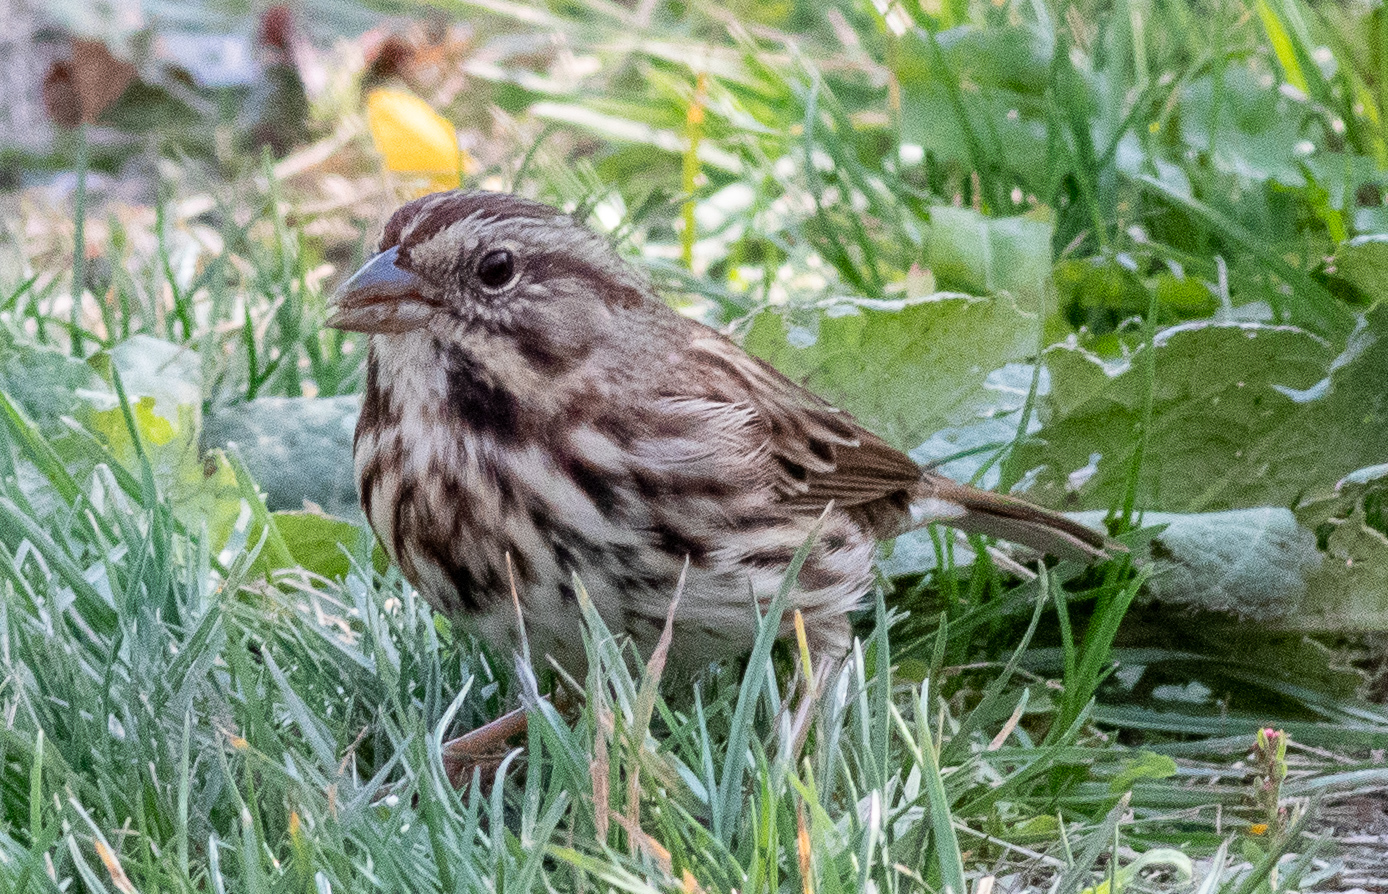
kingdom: Animalia
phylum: Chordata
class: Aves
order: Passeriformes
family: Passerellidae
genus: Melospiza
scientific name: Melospiza melodia
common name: Song sparrow
